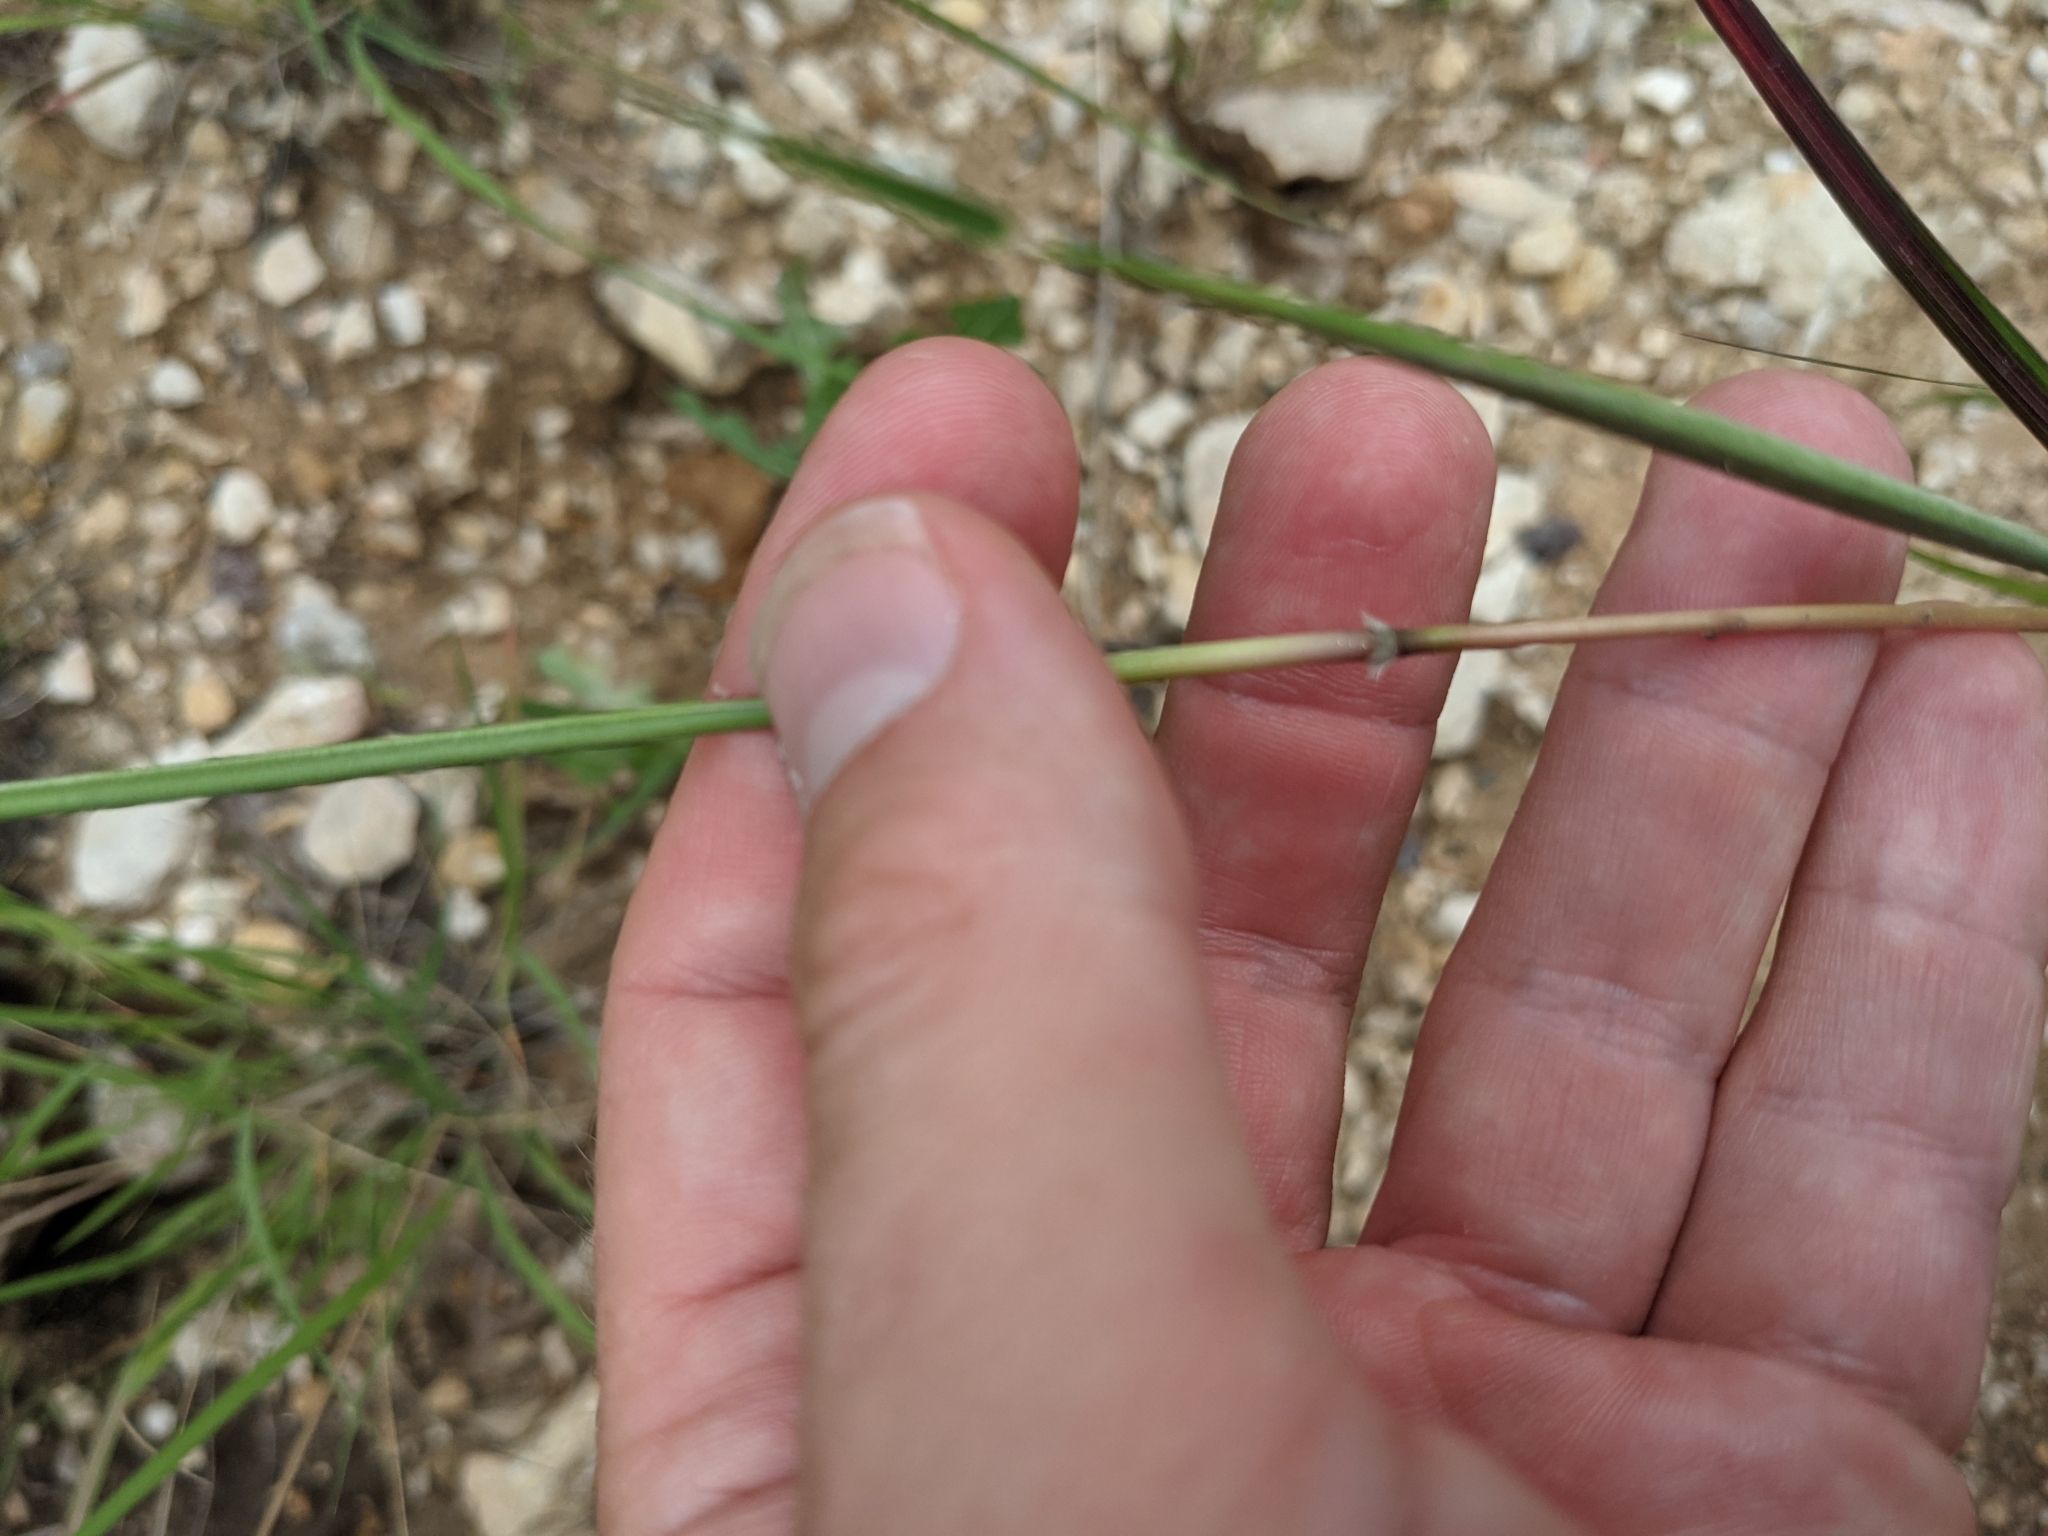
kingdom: Plantae
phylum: Tracheophyta
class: Liliopsida
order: Poales
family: Poaceae
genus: Bothriochloa
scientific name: Bothriochloa barbinodis
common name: Cane bluestem
